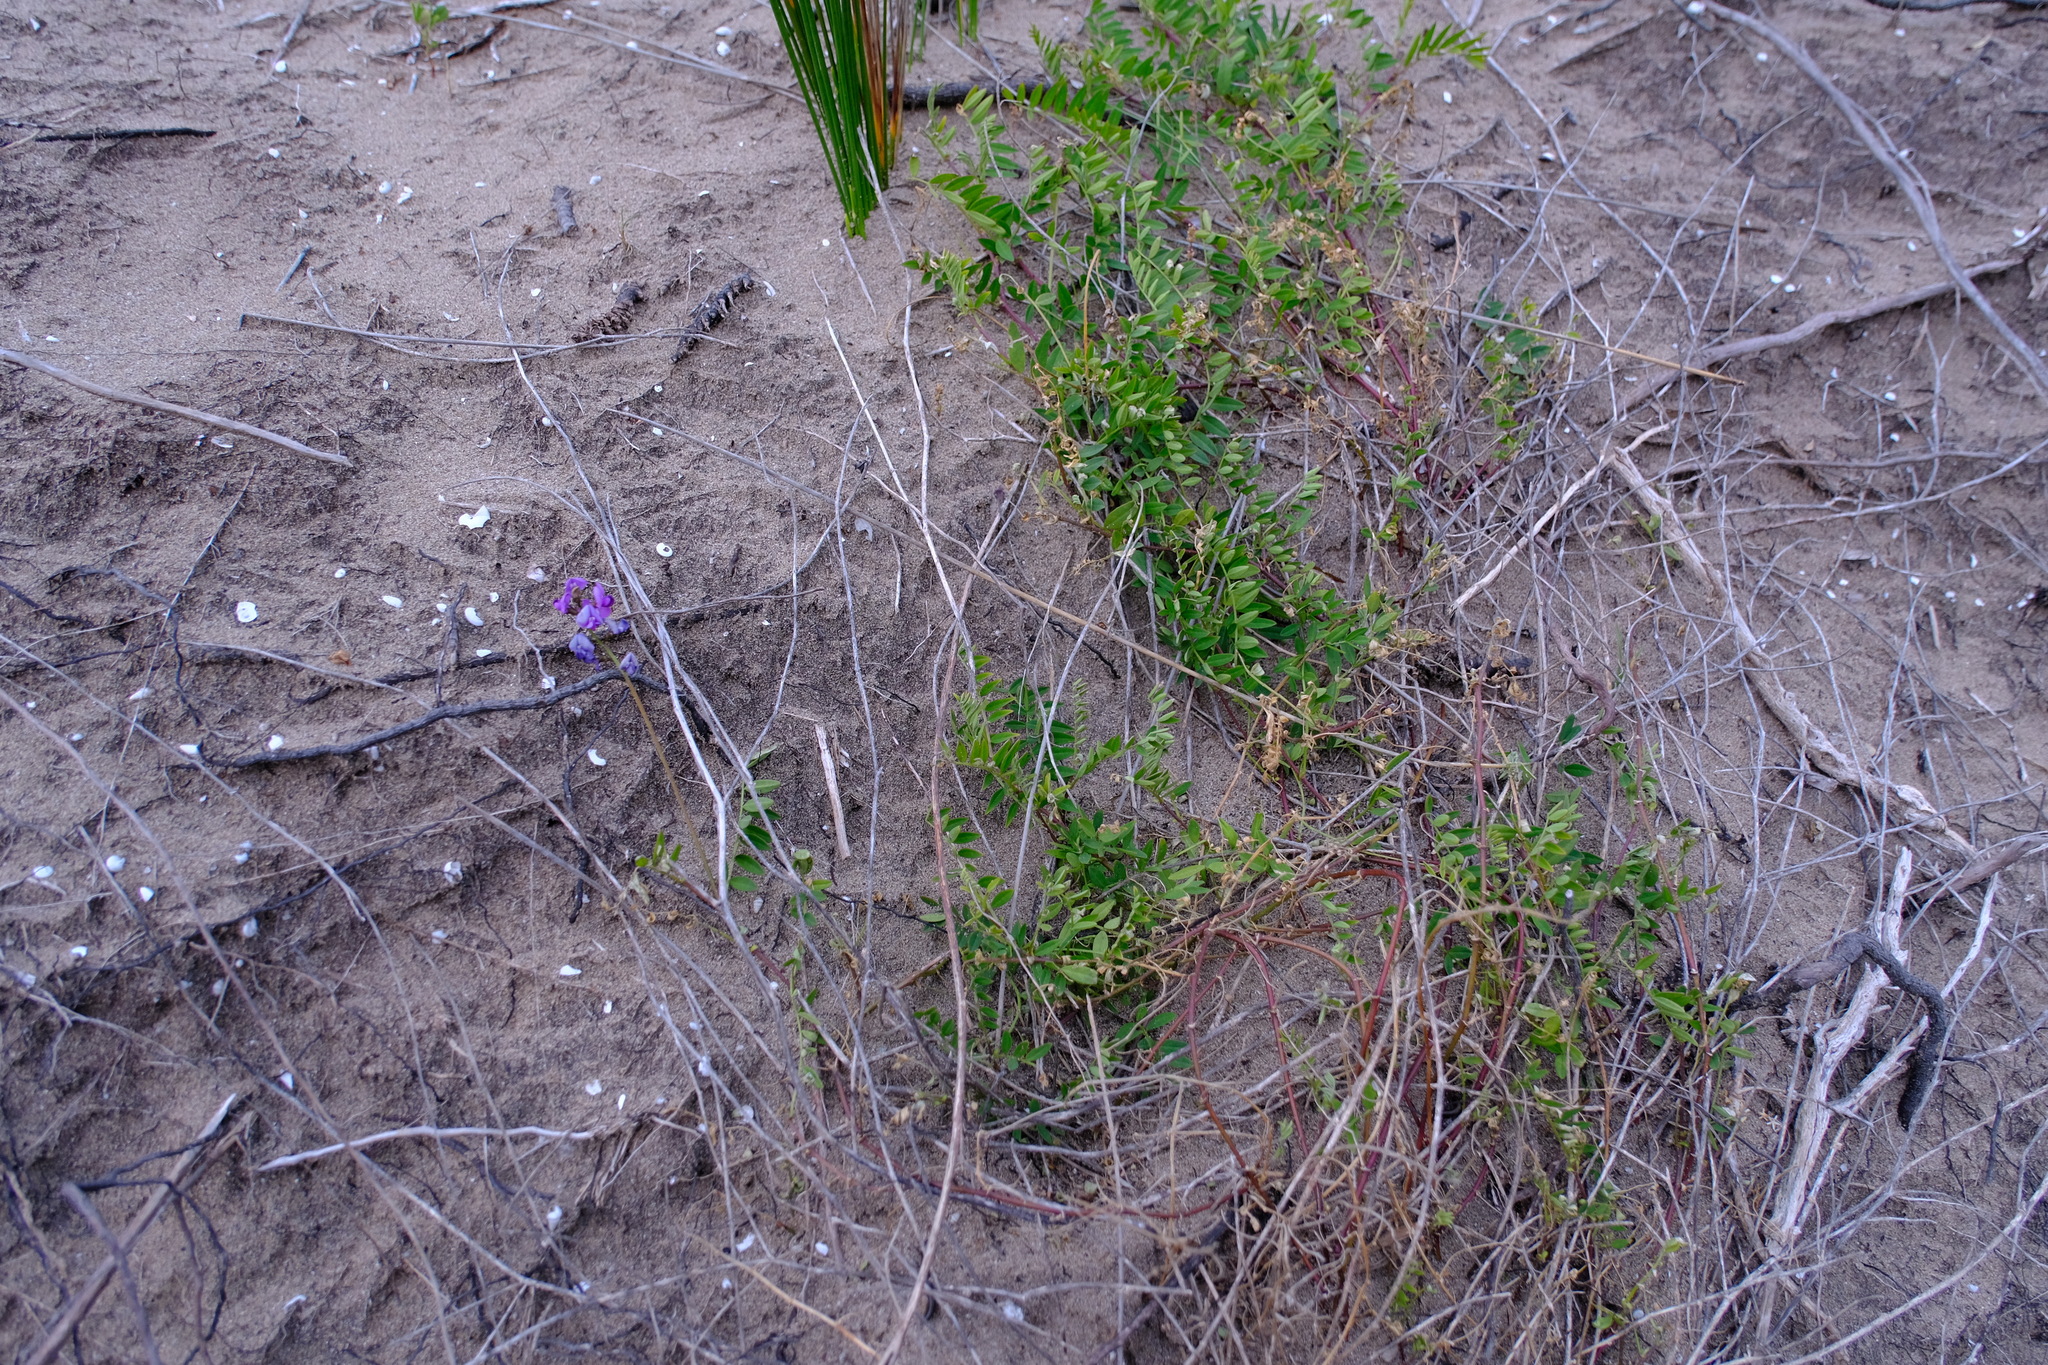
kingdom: Plantae
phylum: Tracheophyta
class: Magnoliopsida
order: Fabales
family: Fabaceae
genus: Swainsona
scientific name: Swainsona lessertiifolia
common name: Bog-pea
